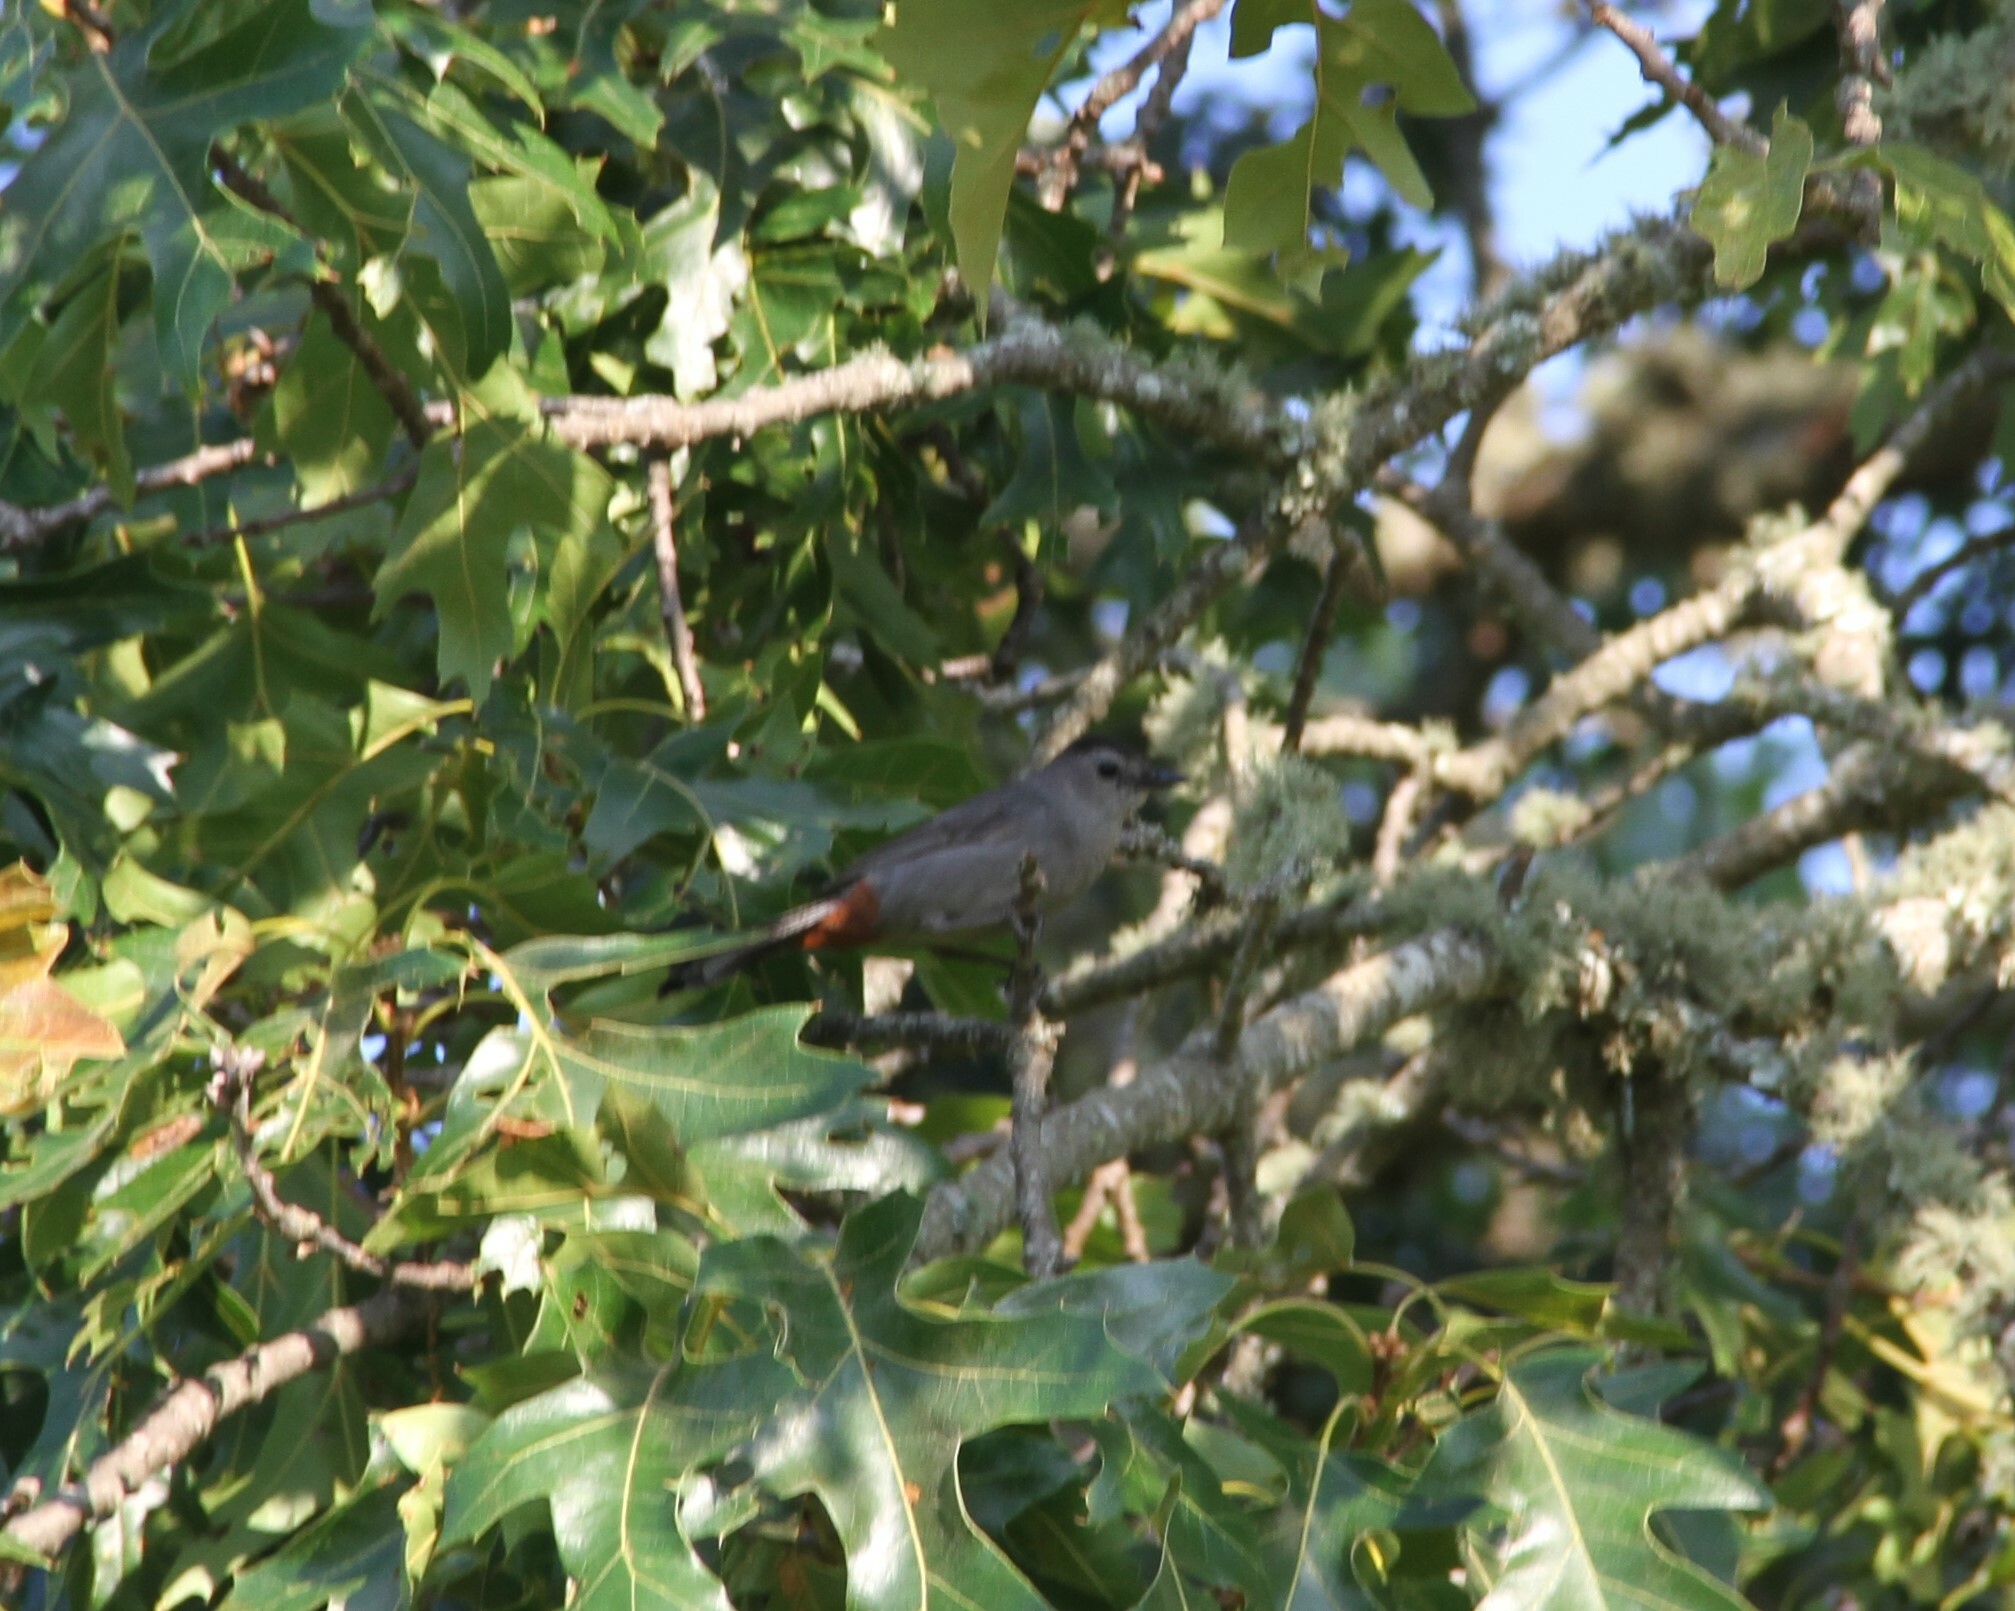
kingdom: Animalia
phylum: Chordata
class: Aves
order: Passeriformes
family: Mimidae
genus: Dumetella
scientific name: Dumetella carolinensis
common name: Gray catbird
